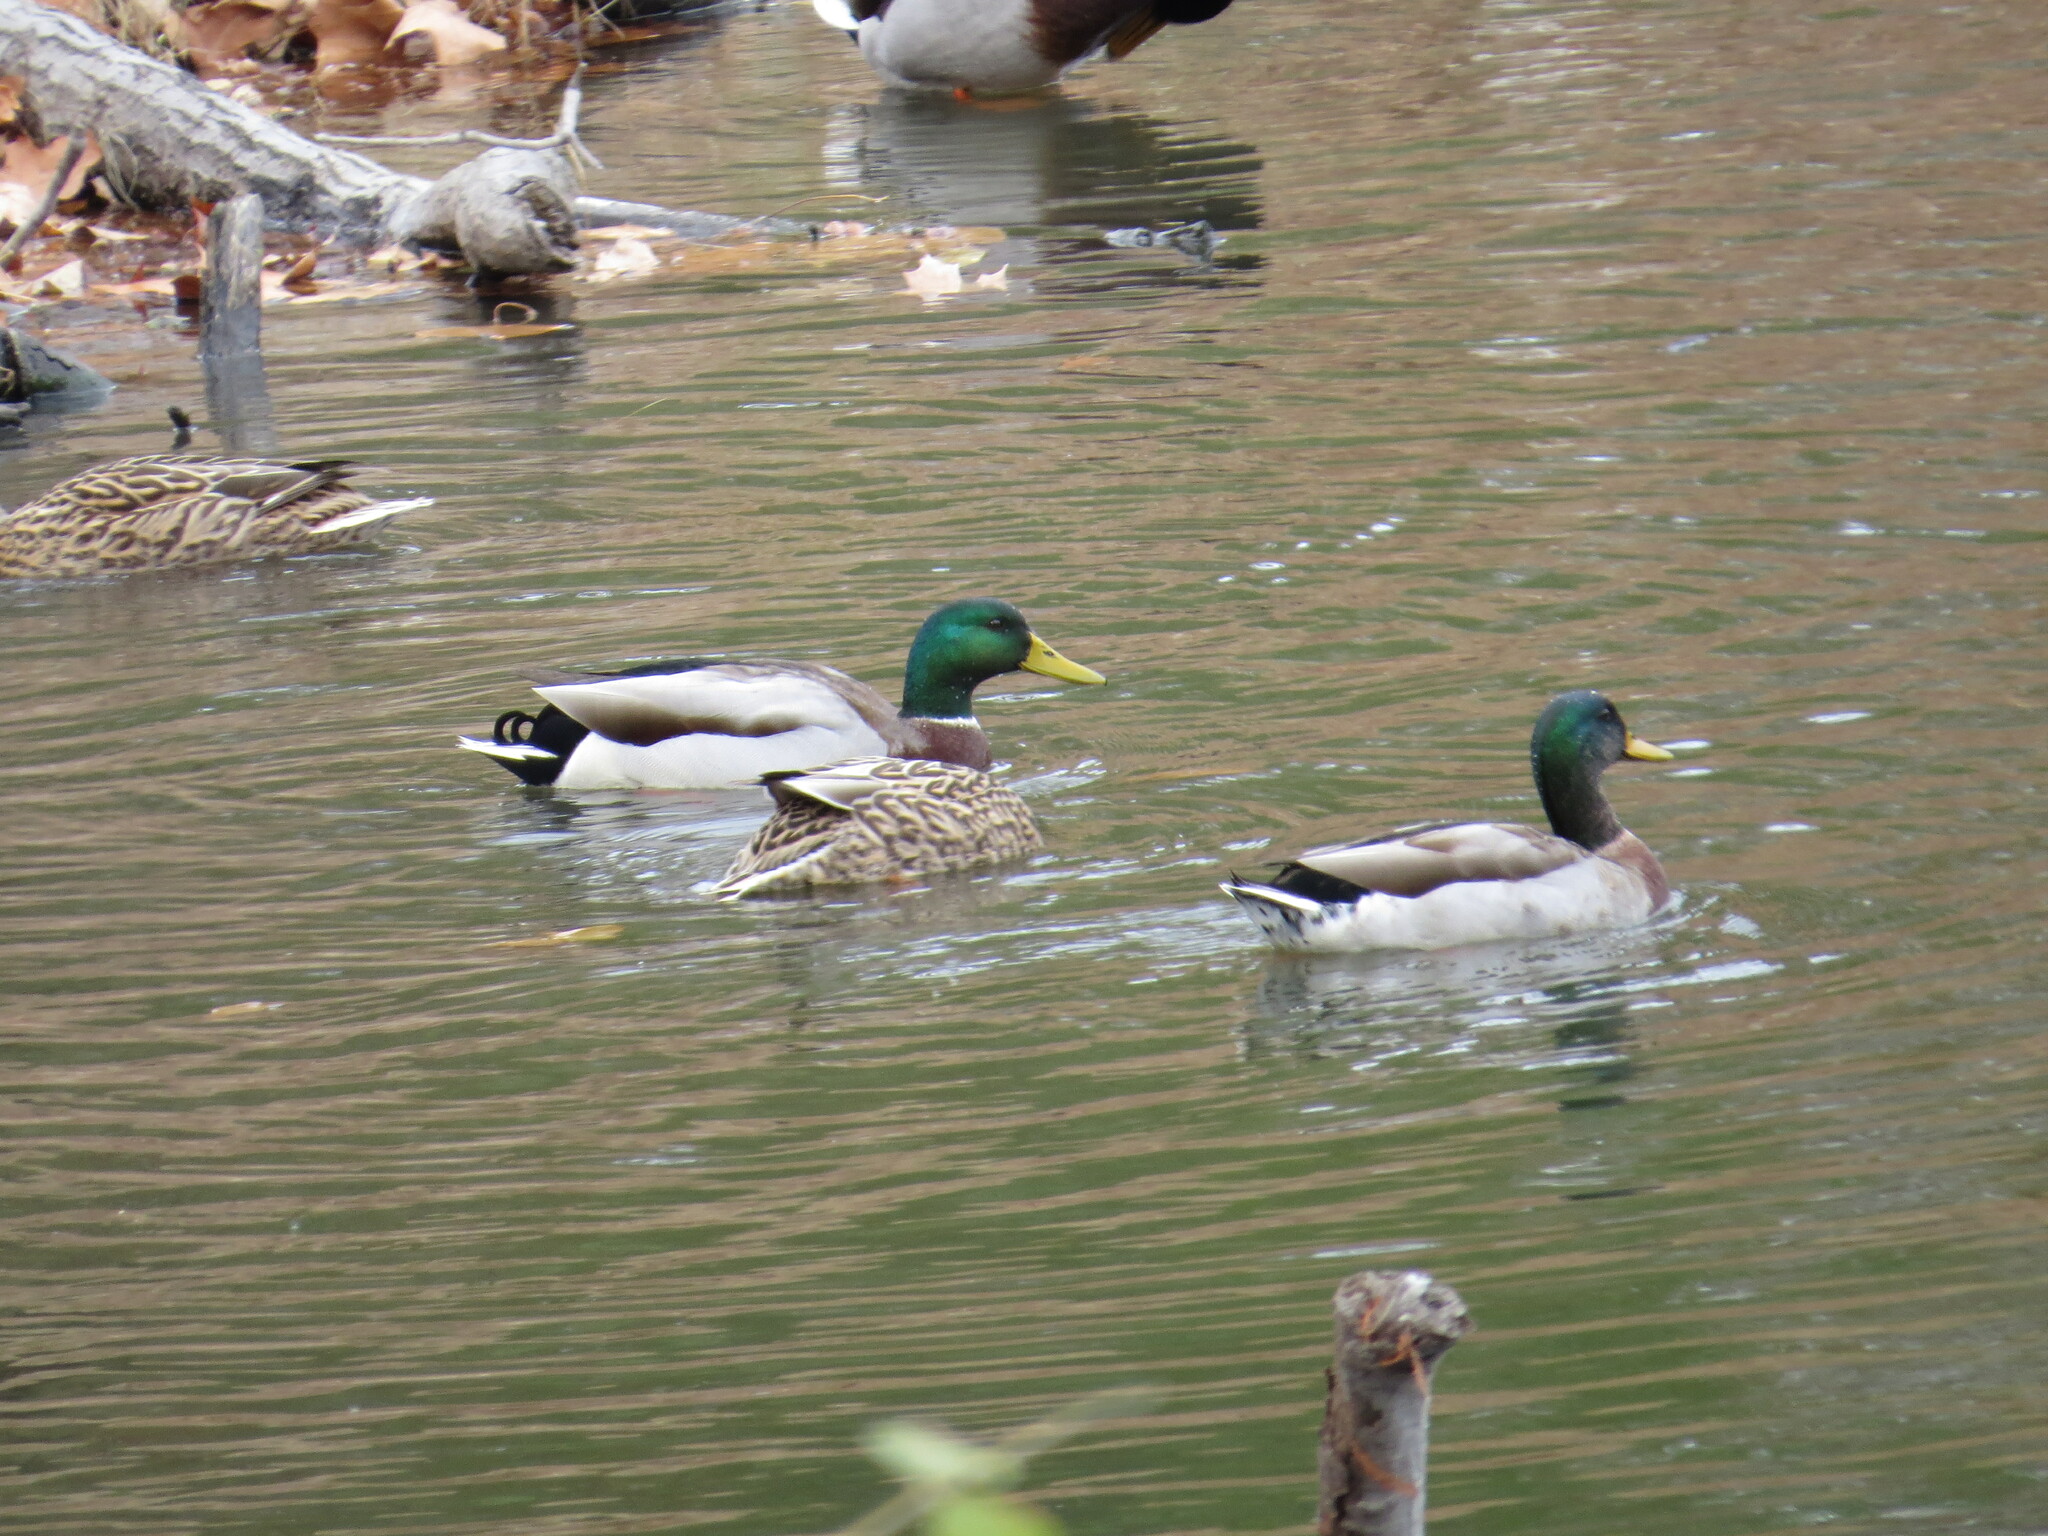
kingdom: Animalia
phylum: Chordata
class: Aves
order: Anseriformes
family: Anatidae
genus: Anas
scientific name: Anas platyrhynchos
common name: Mallard
